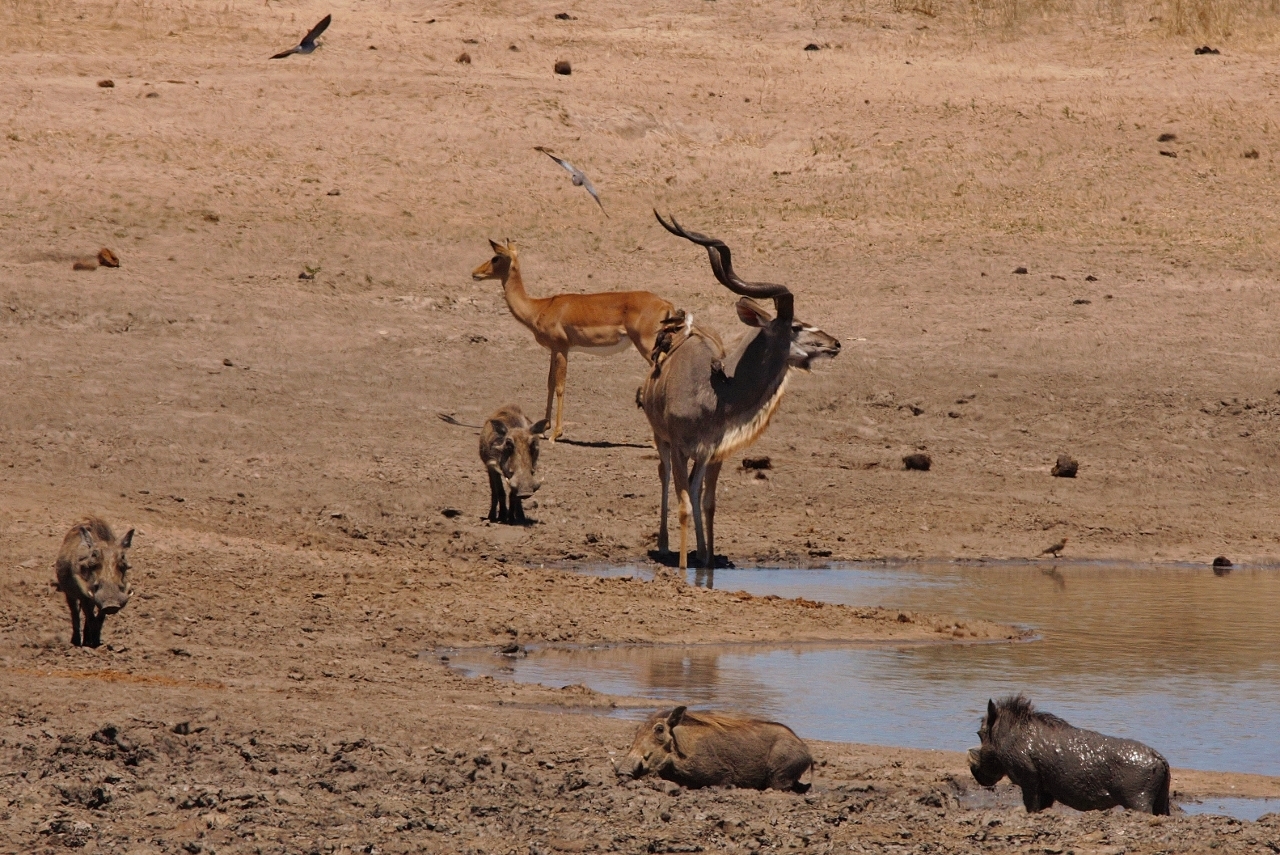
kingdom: Animalia
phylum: Chordata
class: Mammalia
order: Artiodactyla
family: Bovidae
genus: Tragelaphus
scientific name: Tragelaphus strepsiceros
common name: Greater kudu
